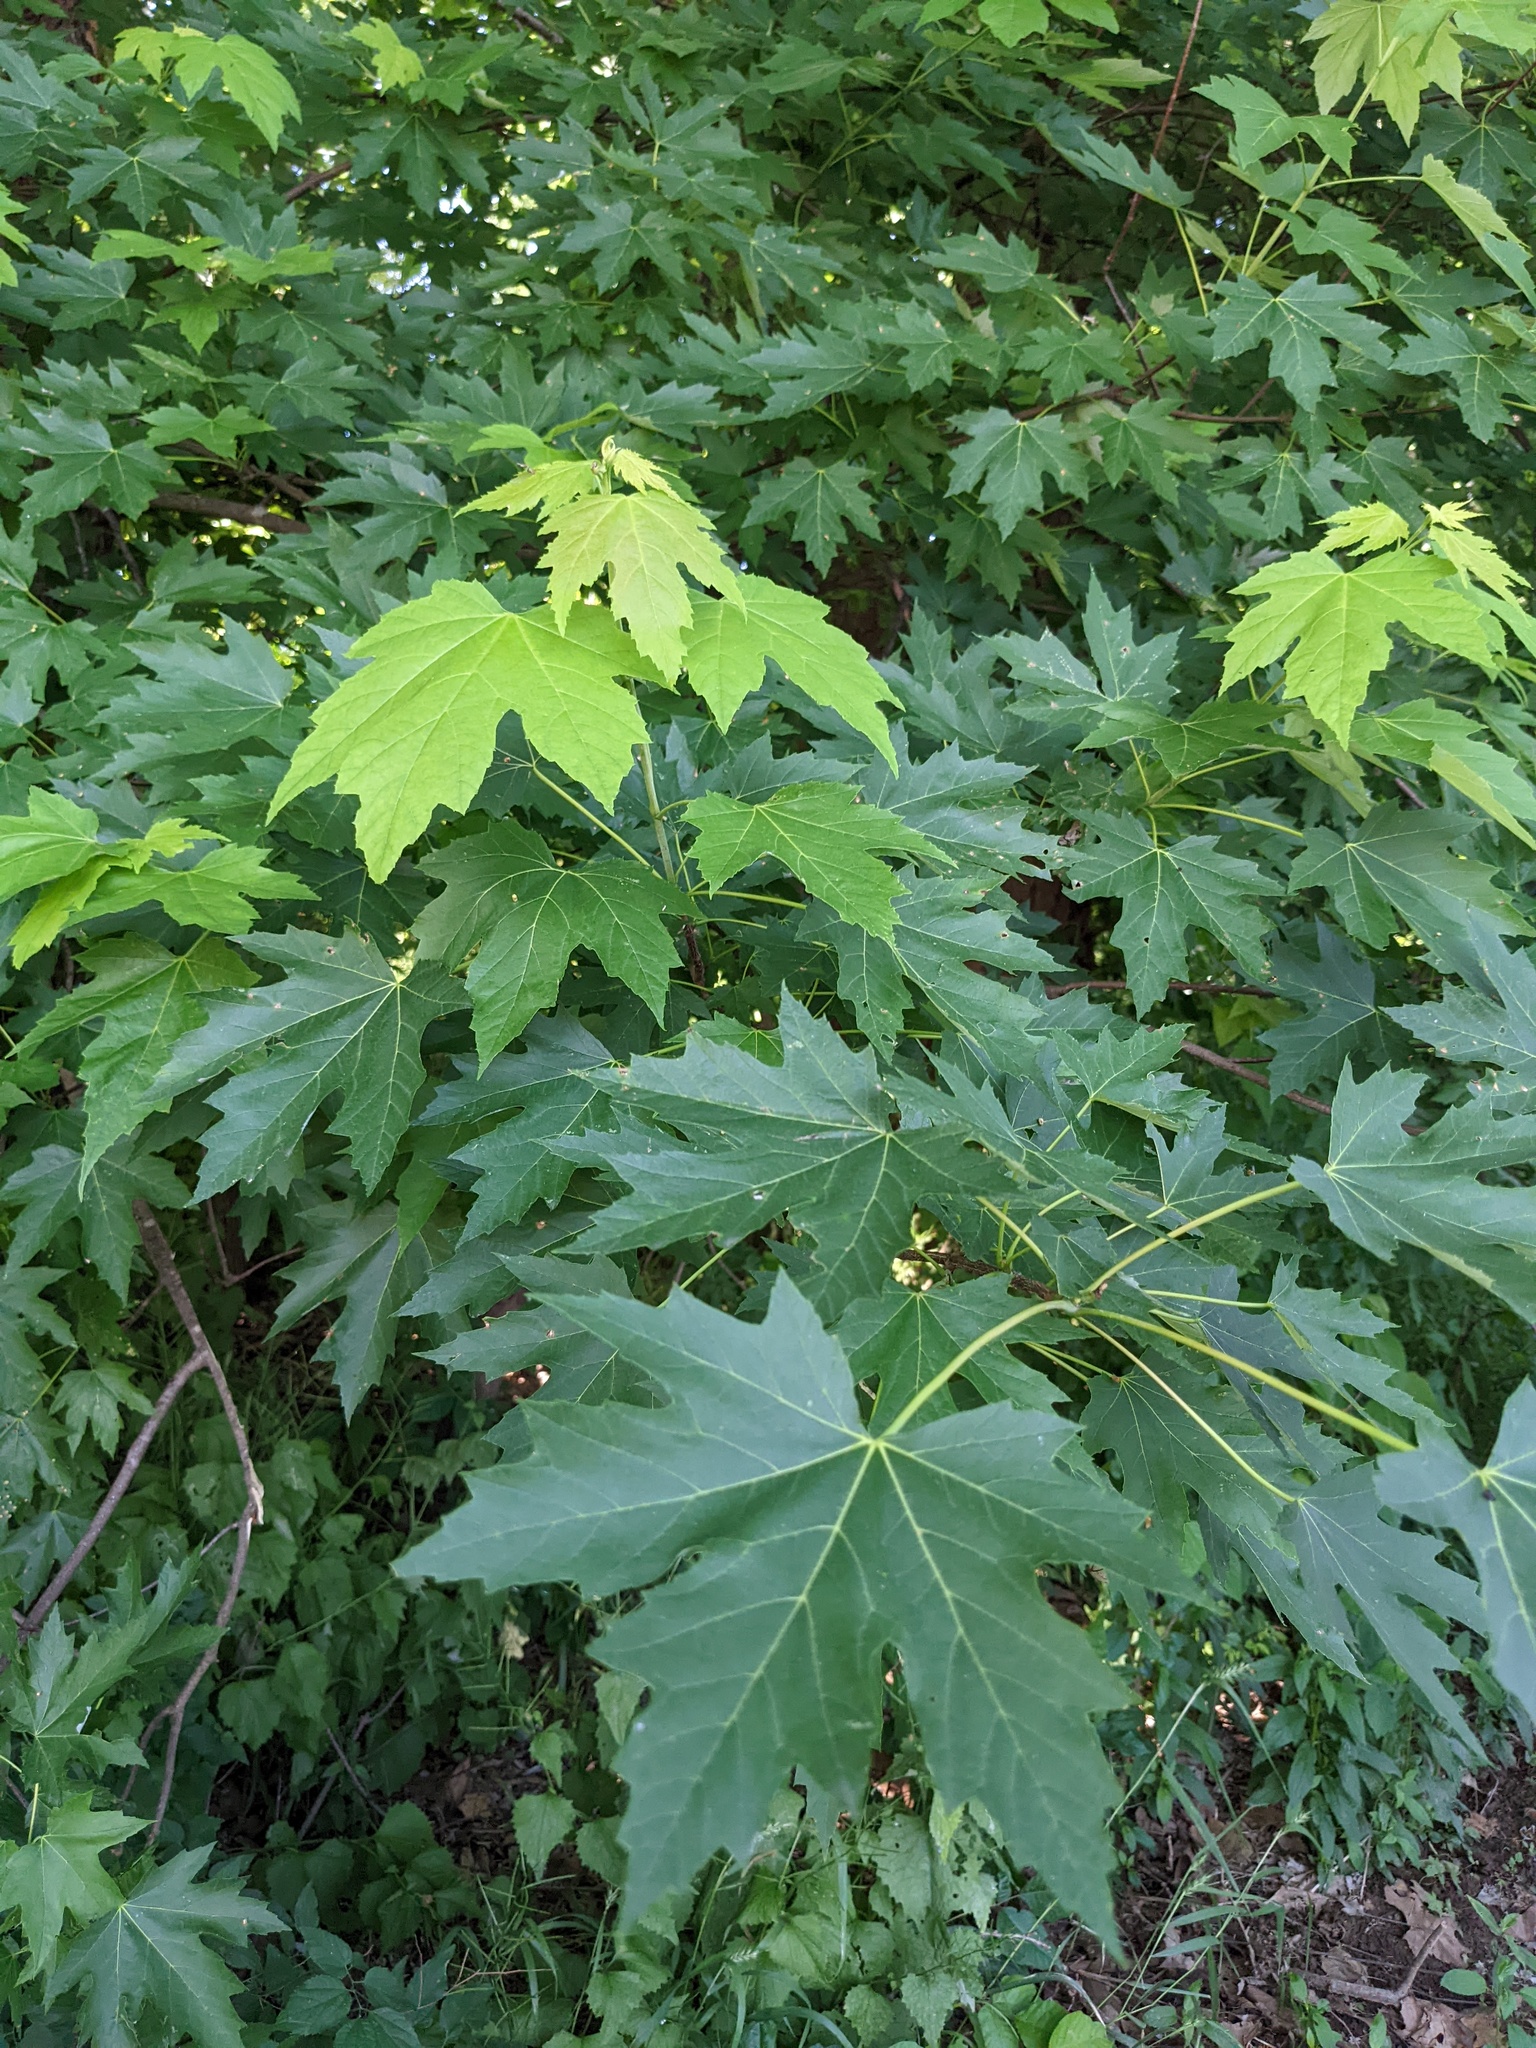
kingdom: Plantae
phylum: Tracheophyta
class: Magnoliopsida
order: Sapindales
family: Sapindaceae
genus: Acer
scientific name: Acer saccharinum
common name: Silver maple
